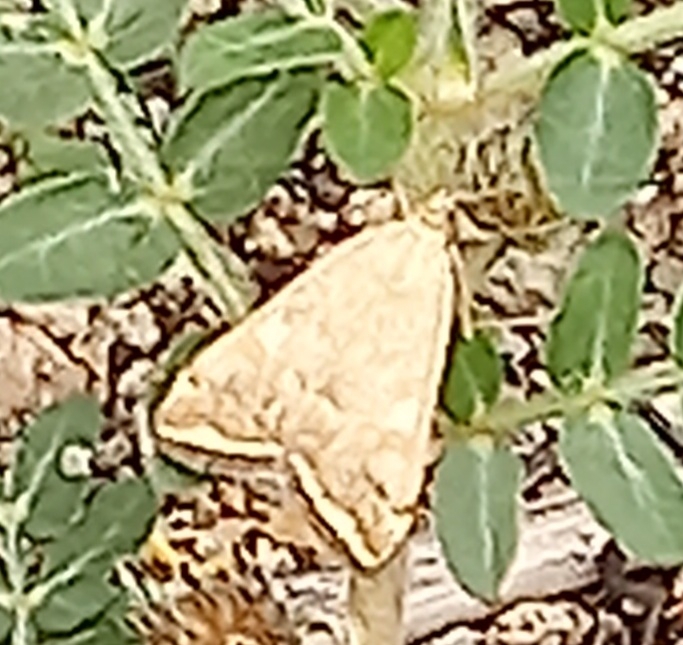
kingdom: Animalia
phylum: Arthropoda
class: Insecta
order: Lepidoptera
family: Crambidae
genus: Loxostege
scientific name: Loxostege sticticalis
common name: Crambid moth
